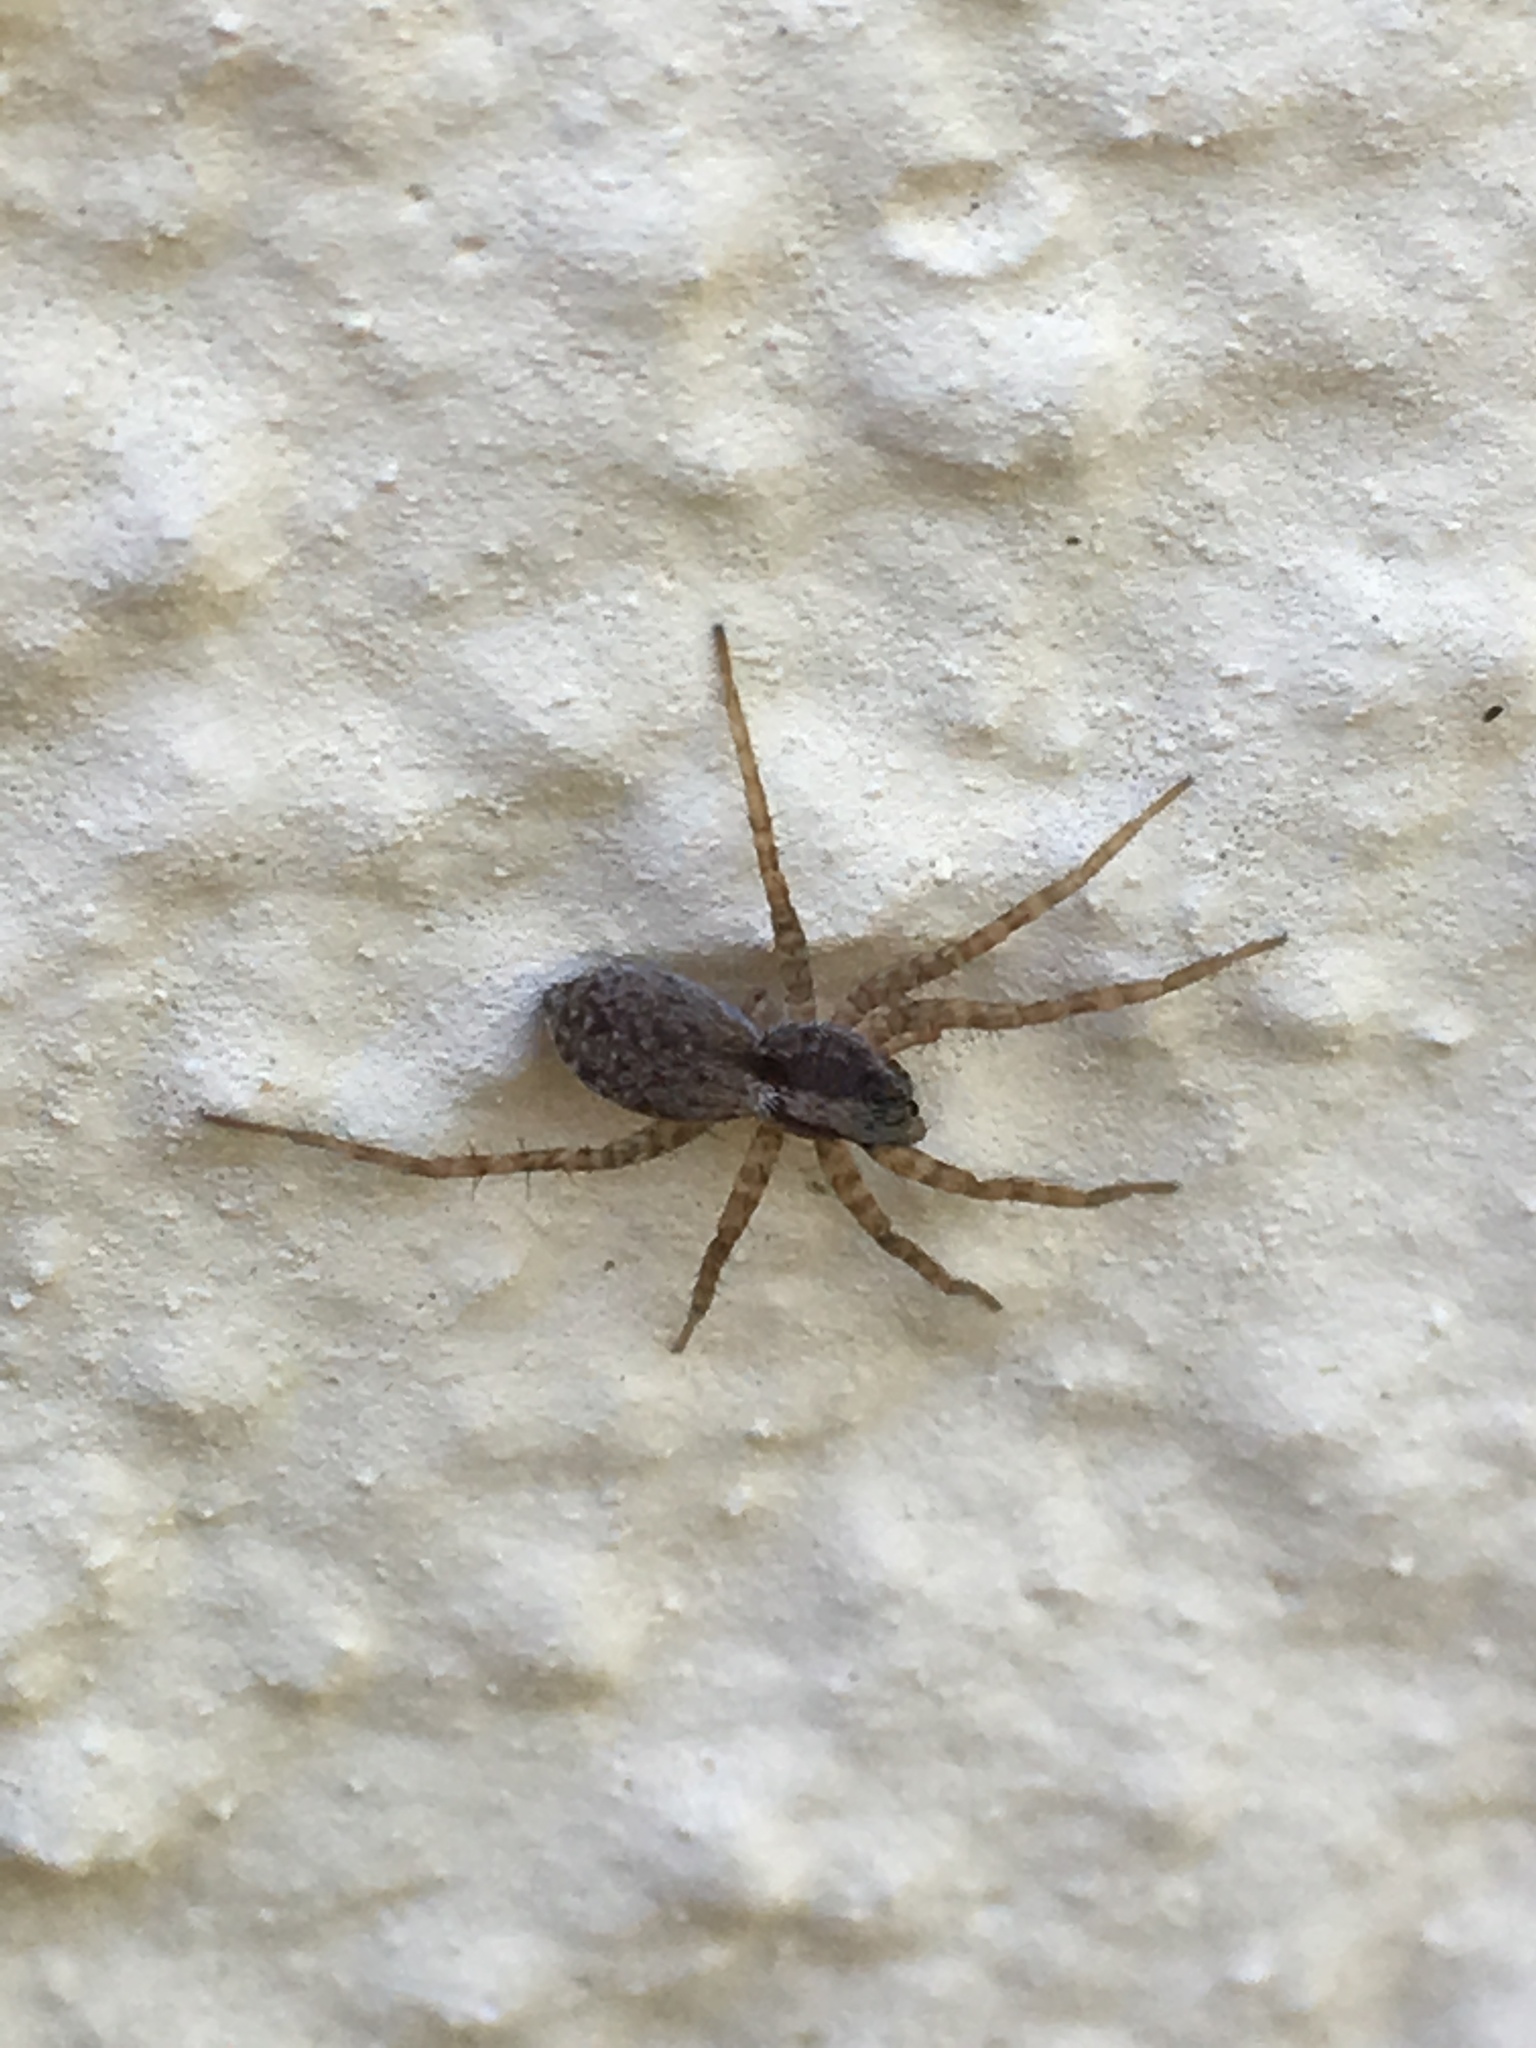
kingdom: Animalia
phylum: Arthropoda
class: Arachnida
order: Araneae
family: Lycosidae
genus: Pardosa
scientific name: Pardosa
